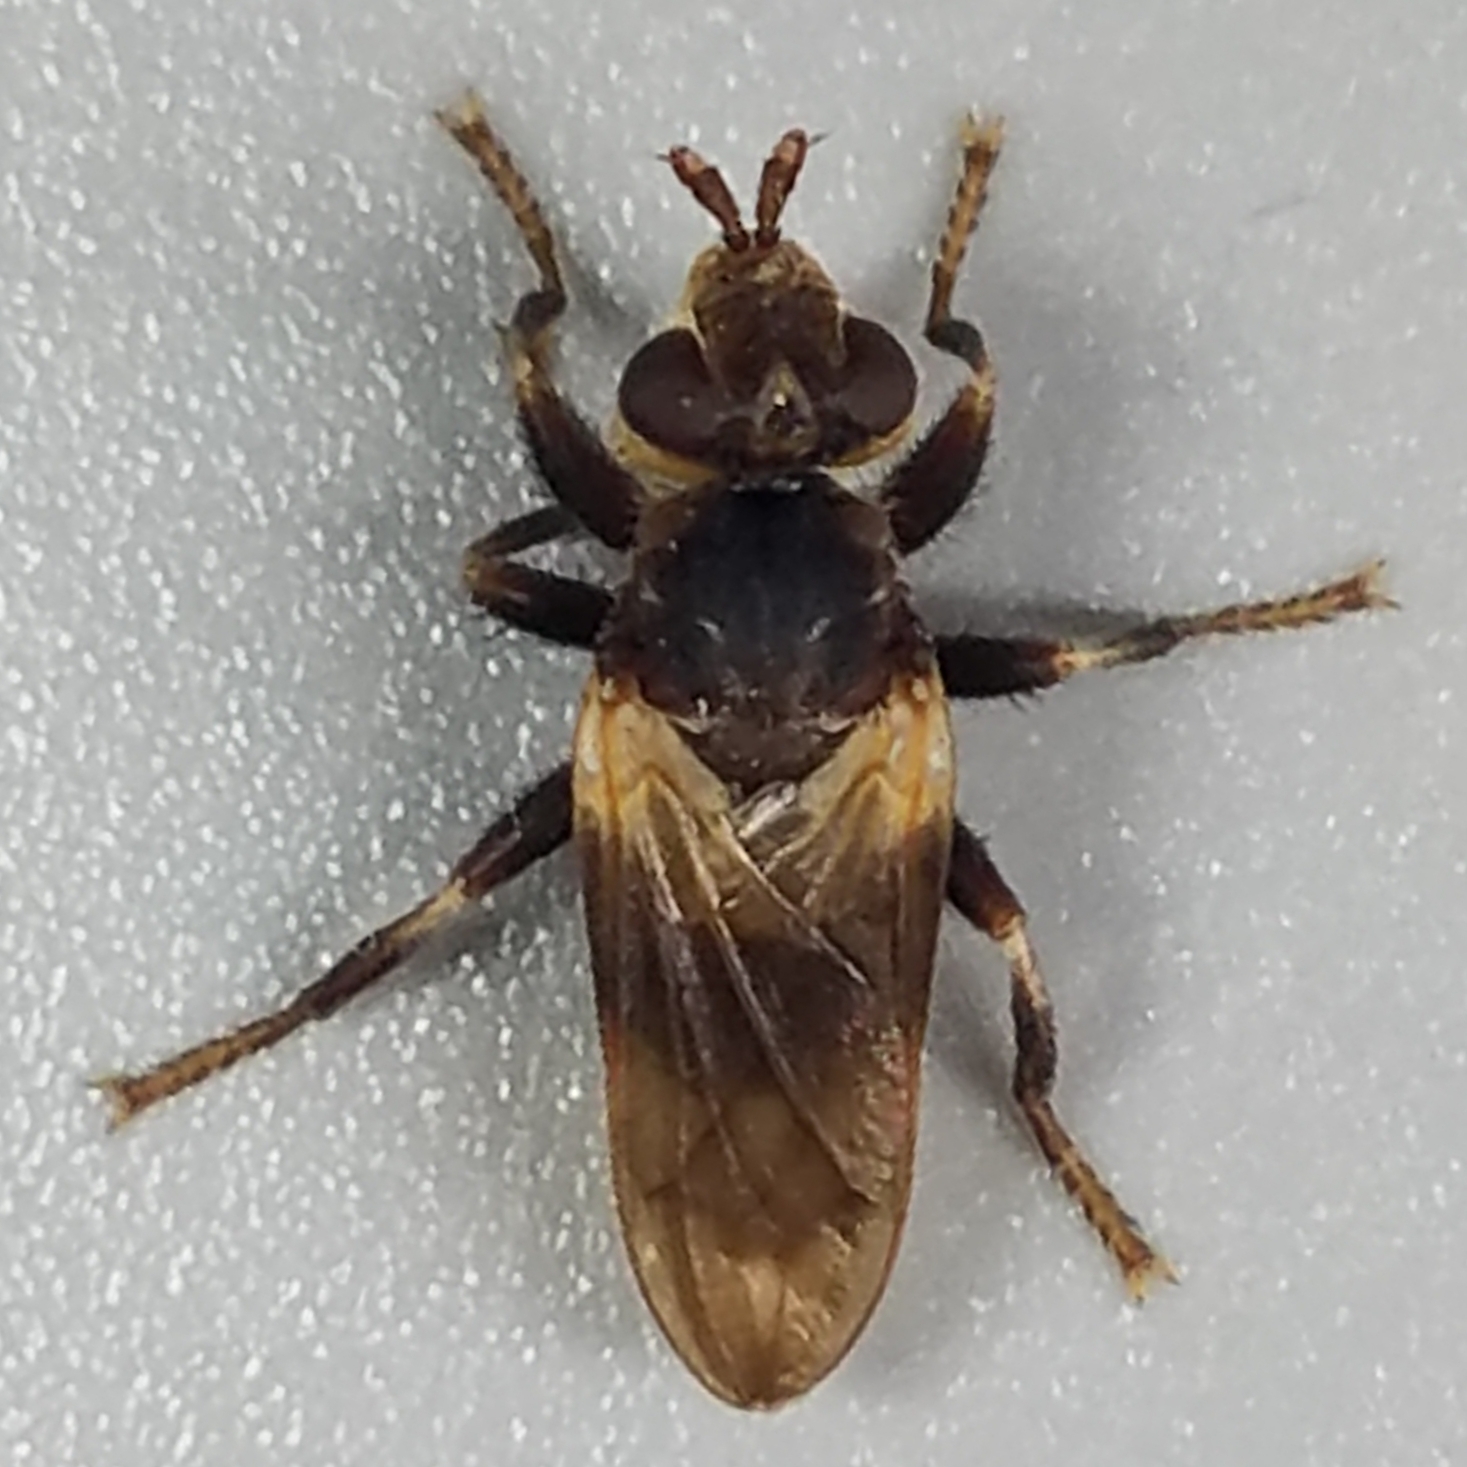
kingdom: Animalia
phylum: Arthropoda
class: Insecta
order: Diptera
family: Conopidae
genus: Myopa
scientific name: Myopa vesiculosa
